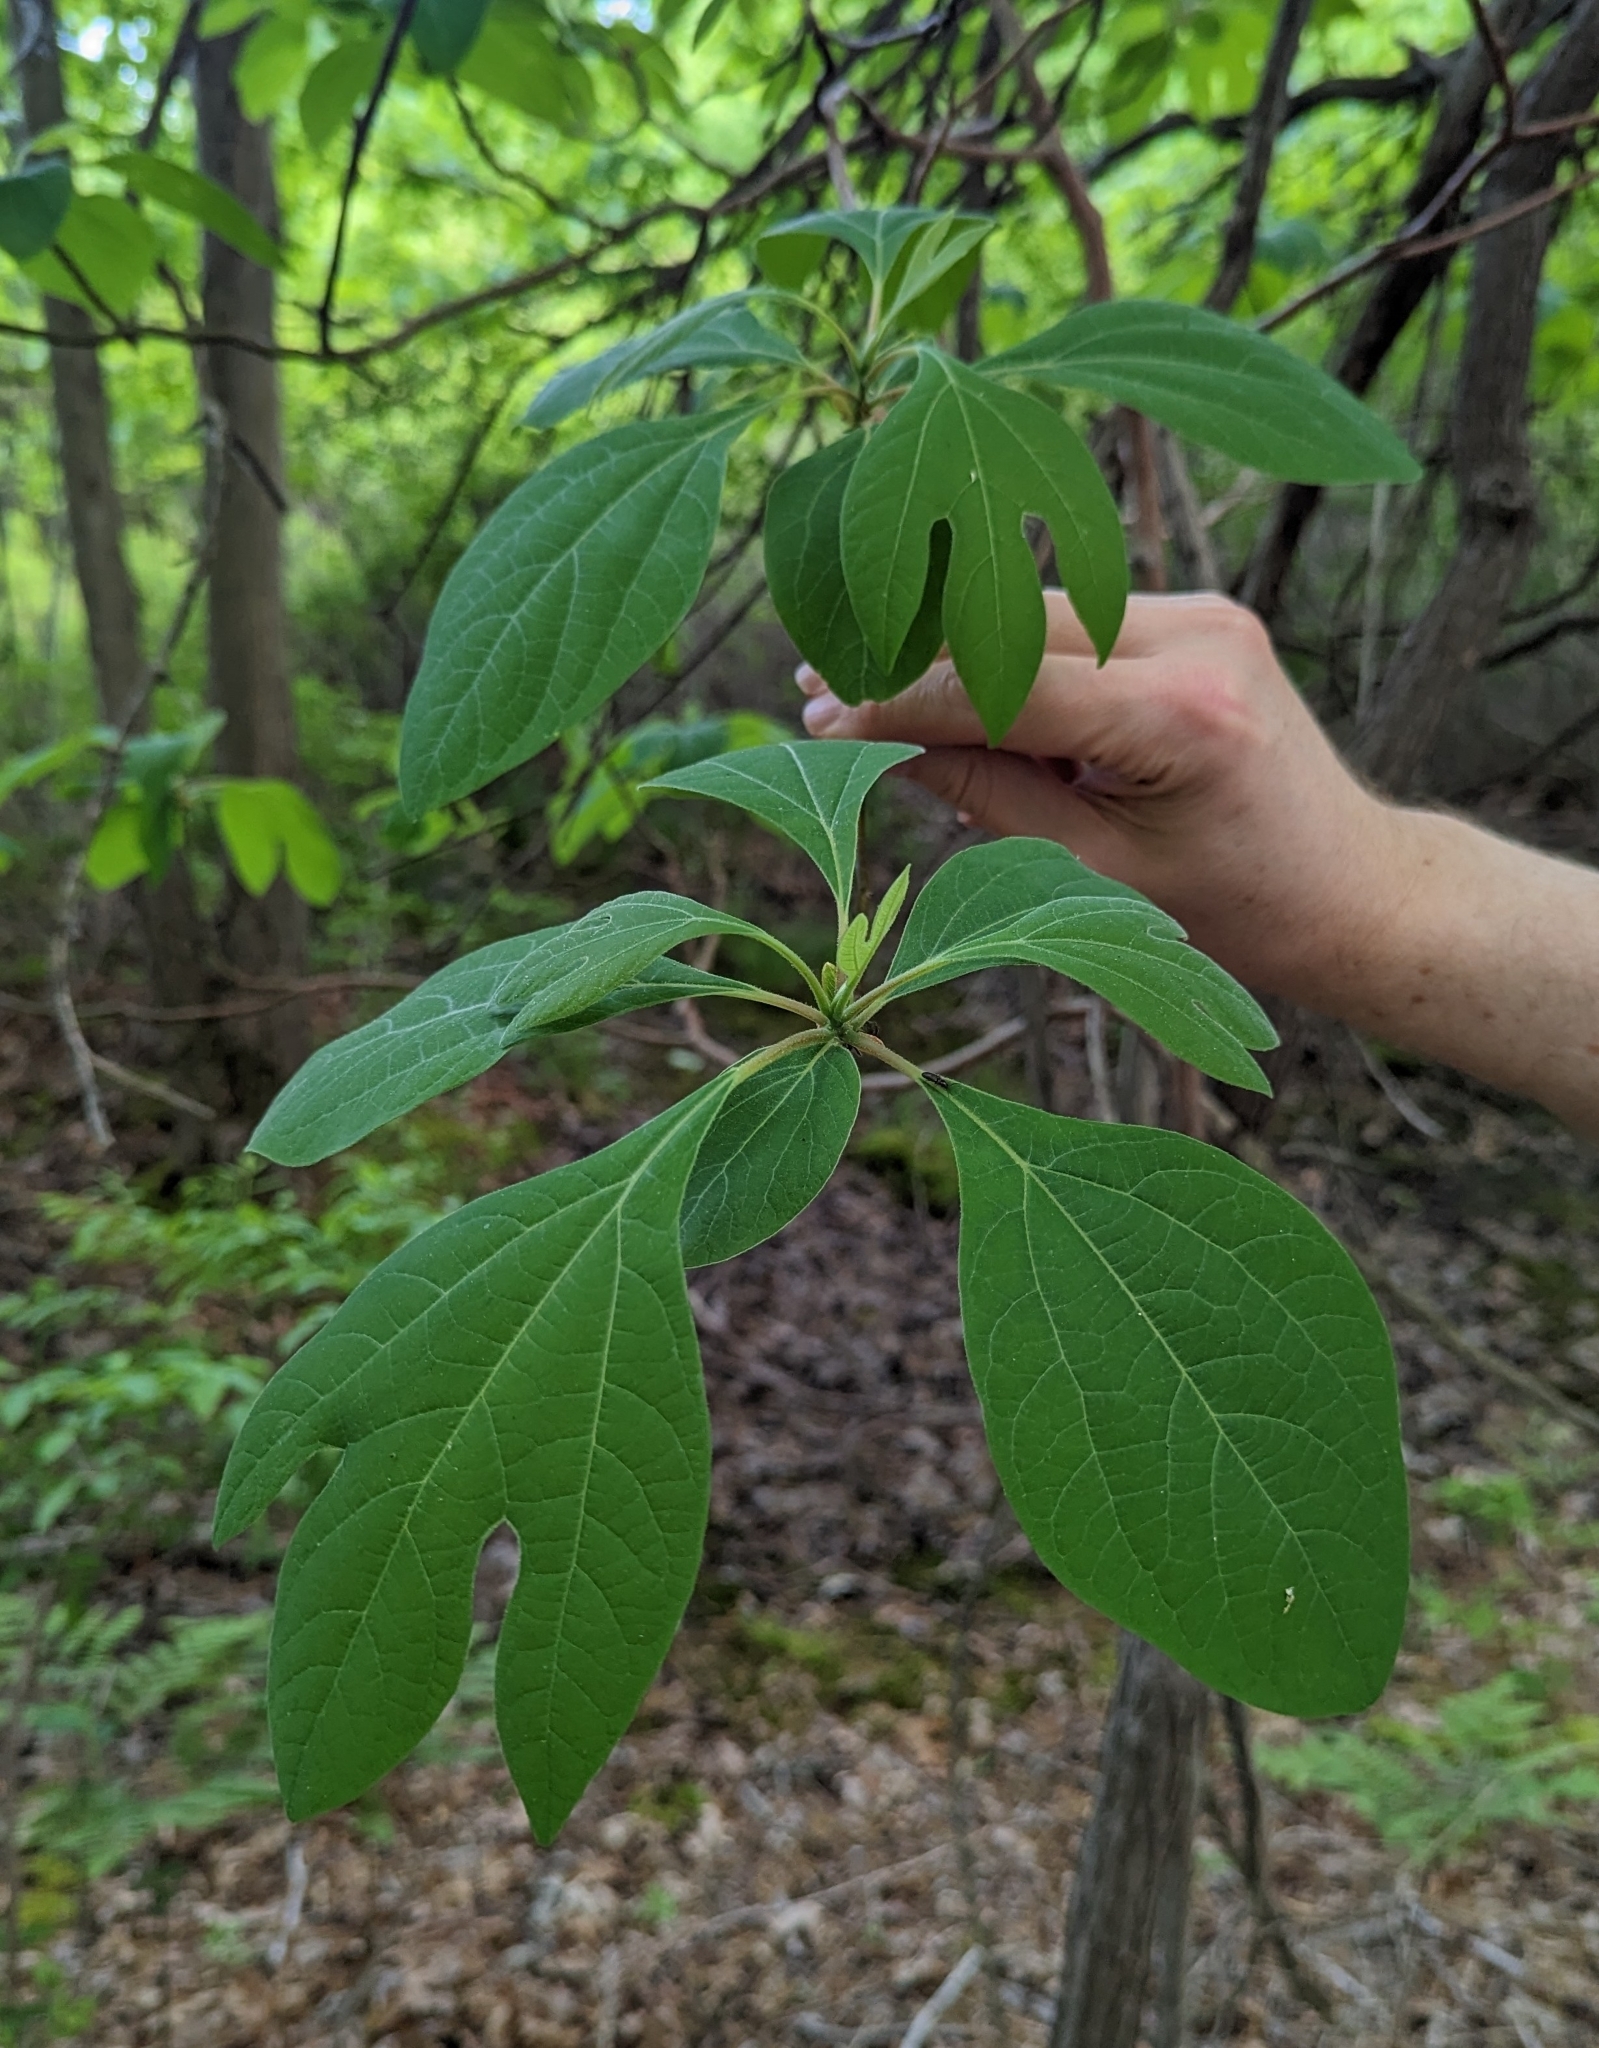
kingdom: Plantae
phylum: Tracheophyta
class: Magnoliopsida
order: Laurales
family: Lauraceae
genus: Sassafras
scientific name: Sassafras albidum
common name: Sassafras
